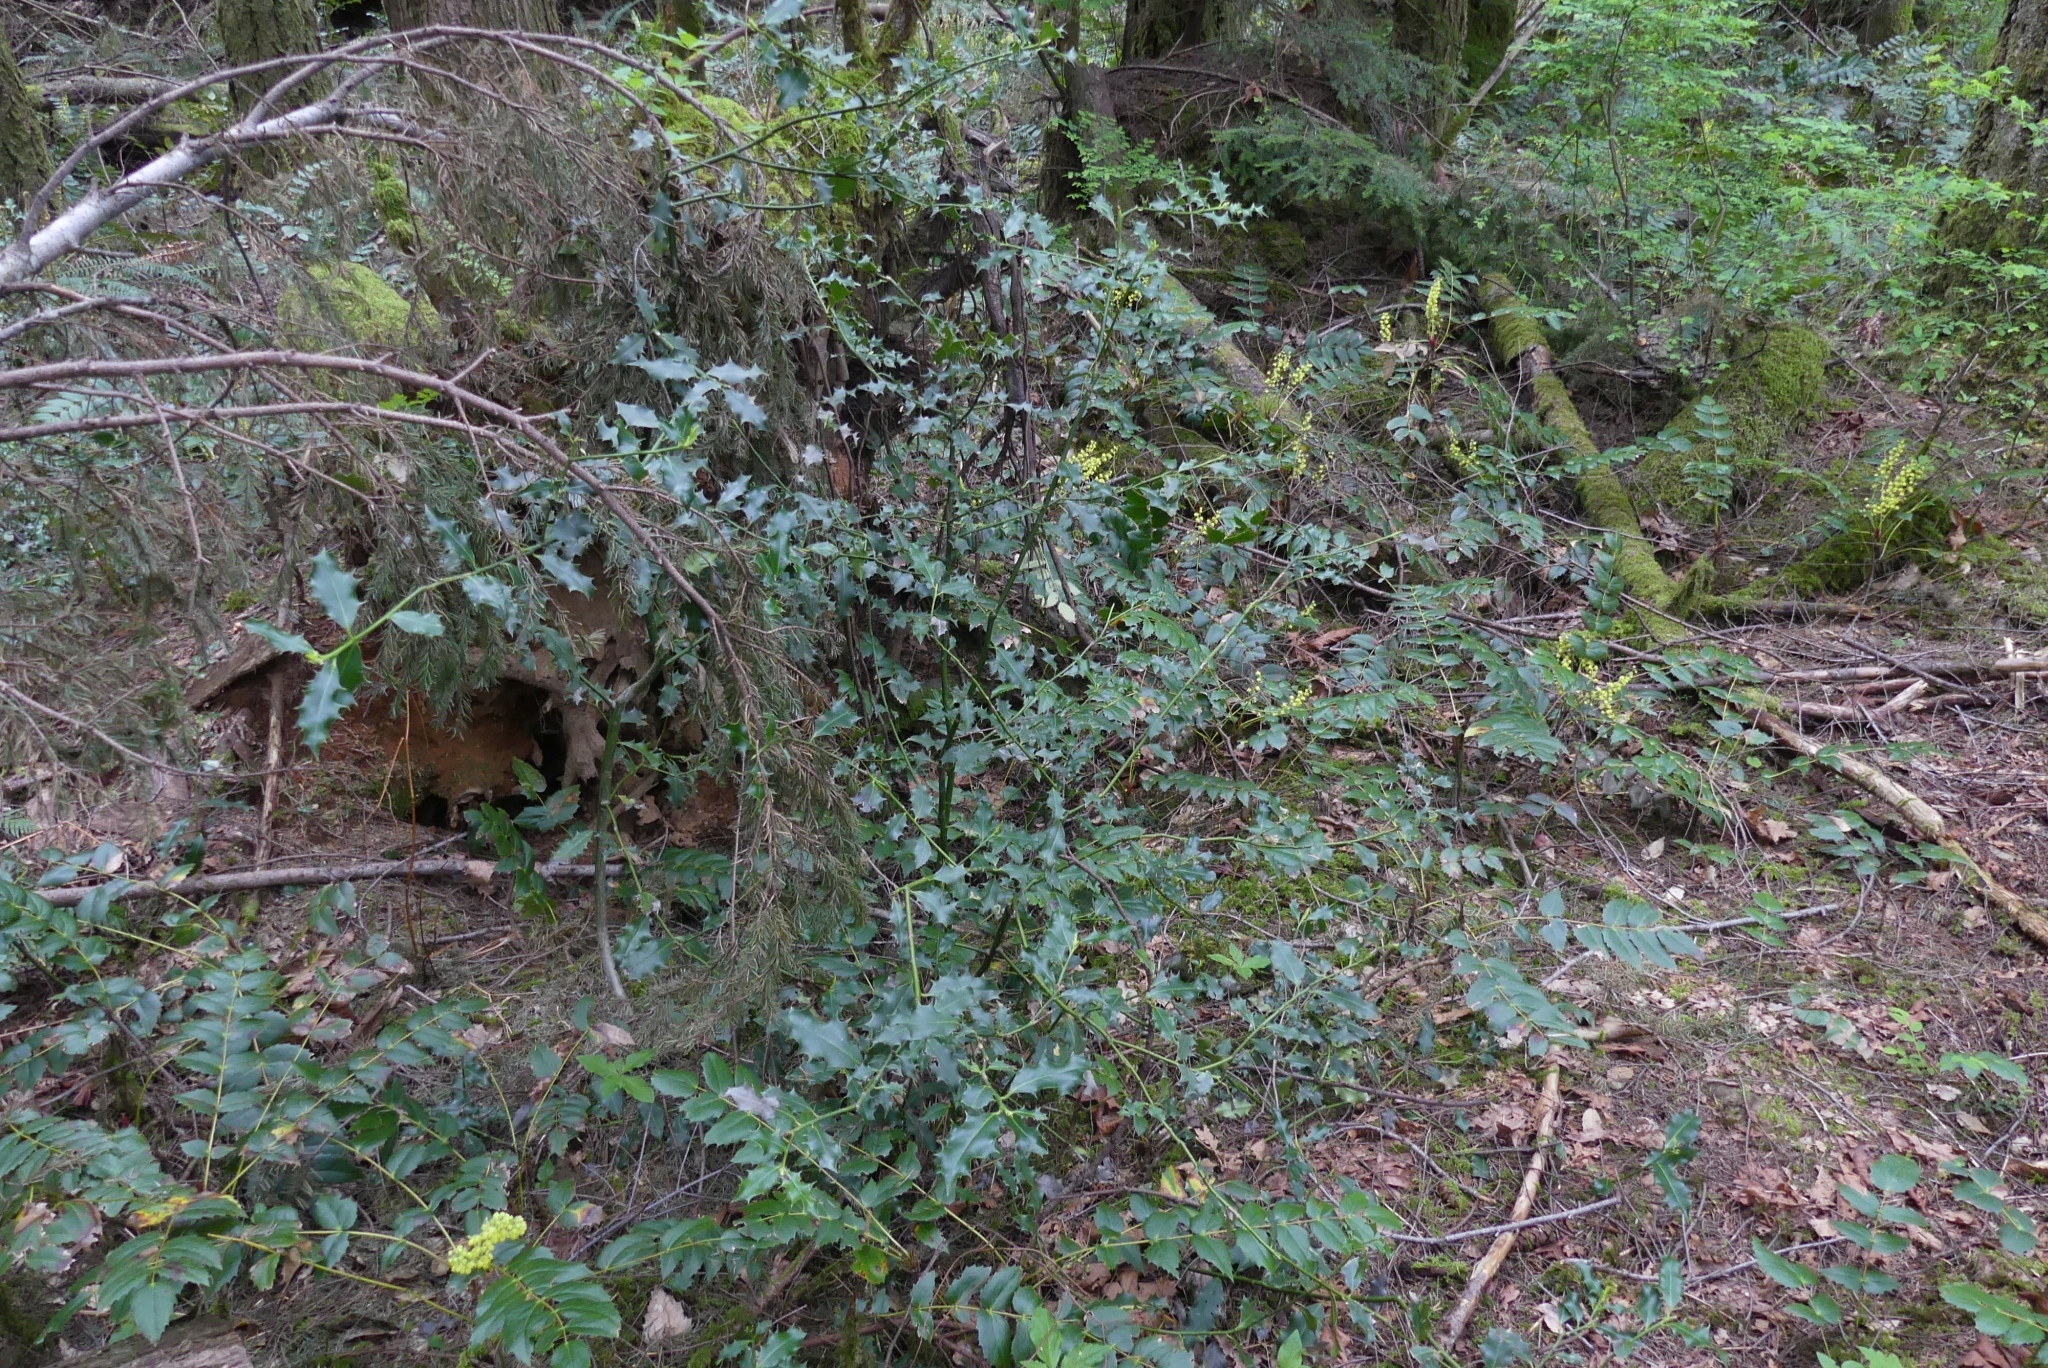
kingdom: Plantae
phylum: Tracheophyta
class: Magnoliopsida
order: Aquifoliales
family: Aquifoliaceae
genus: Ilex
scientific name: Ilex aquifolium
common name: English holly
